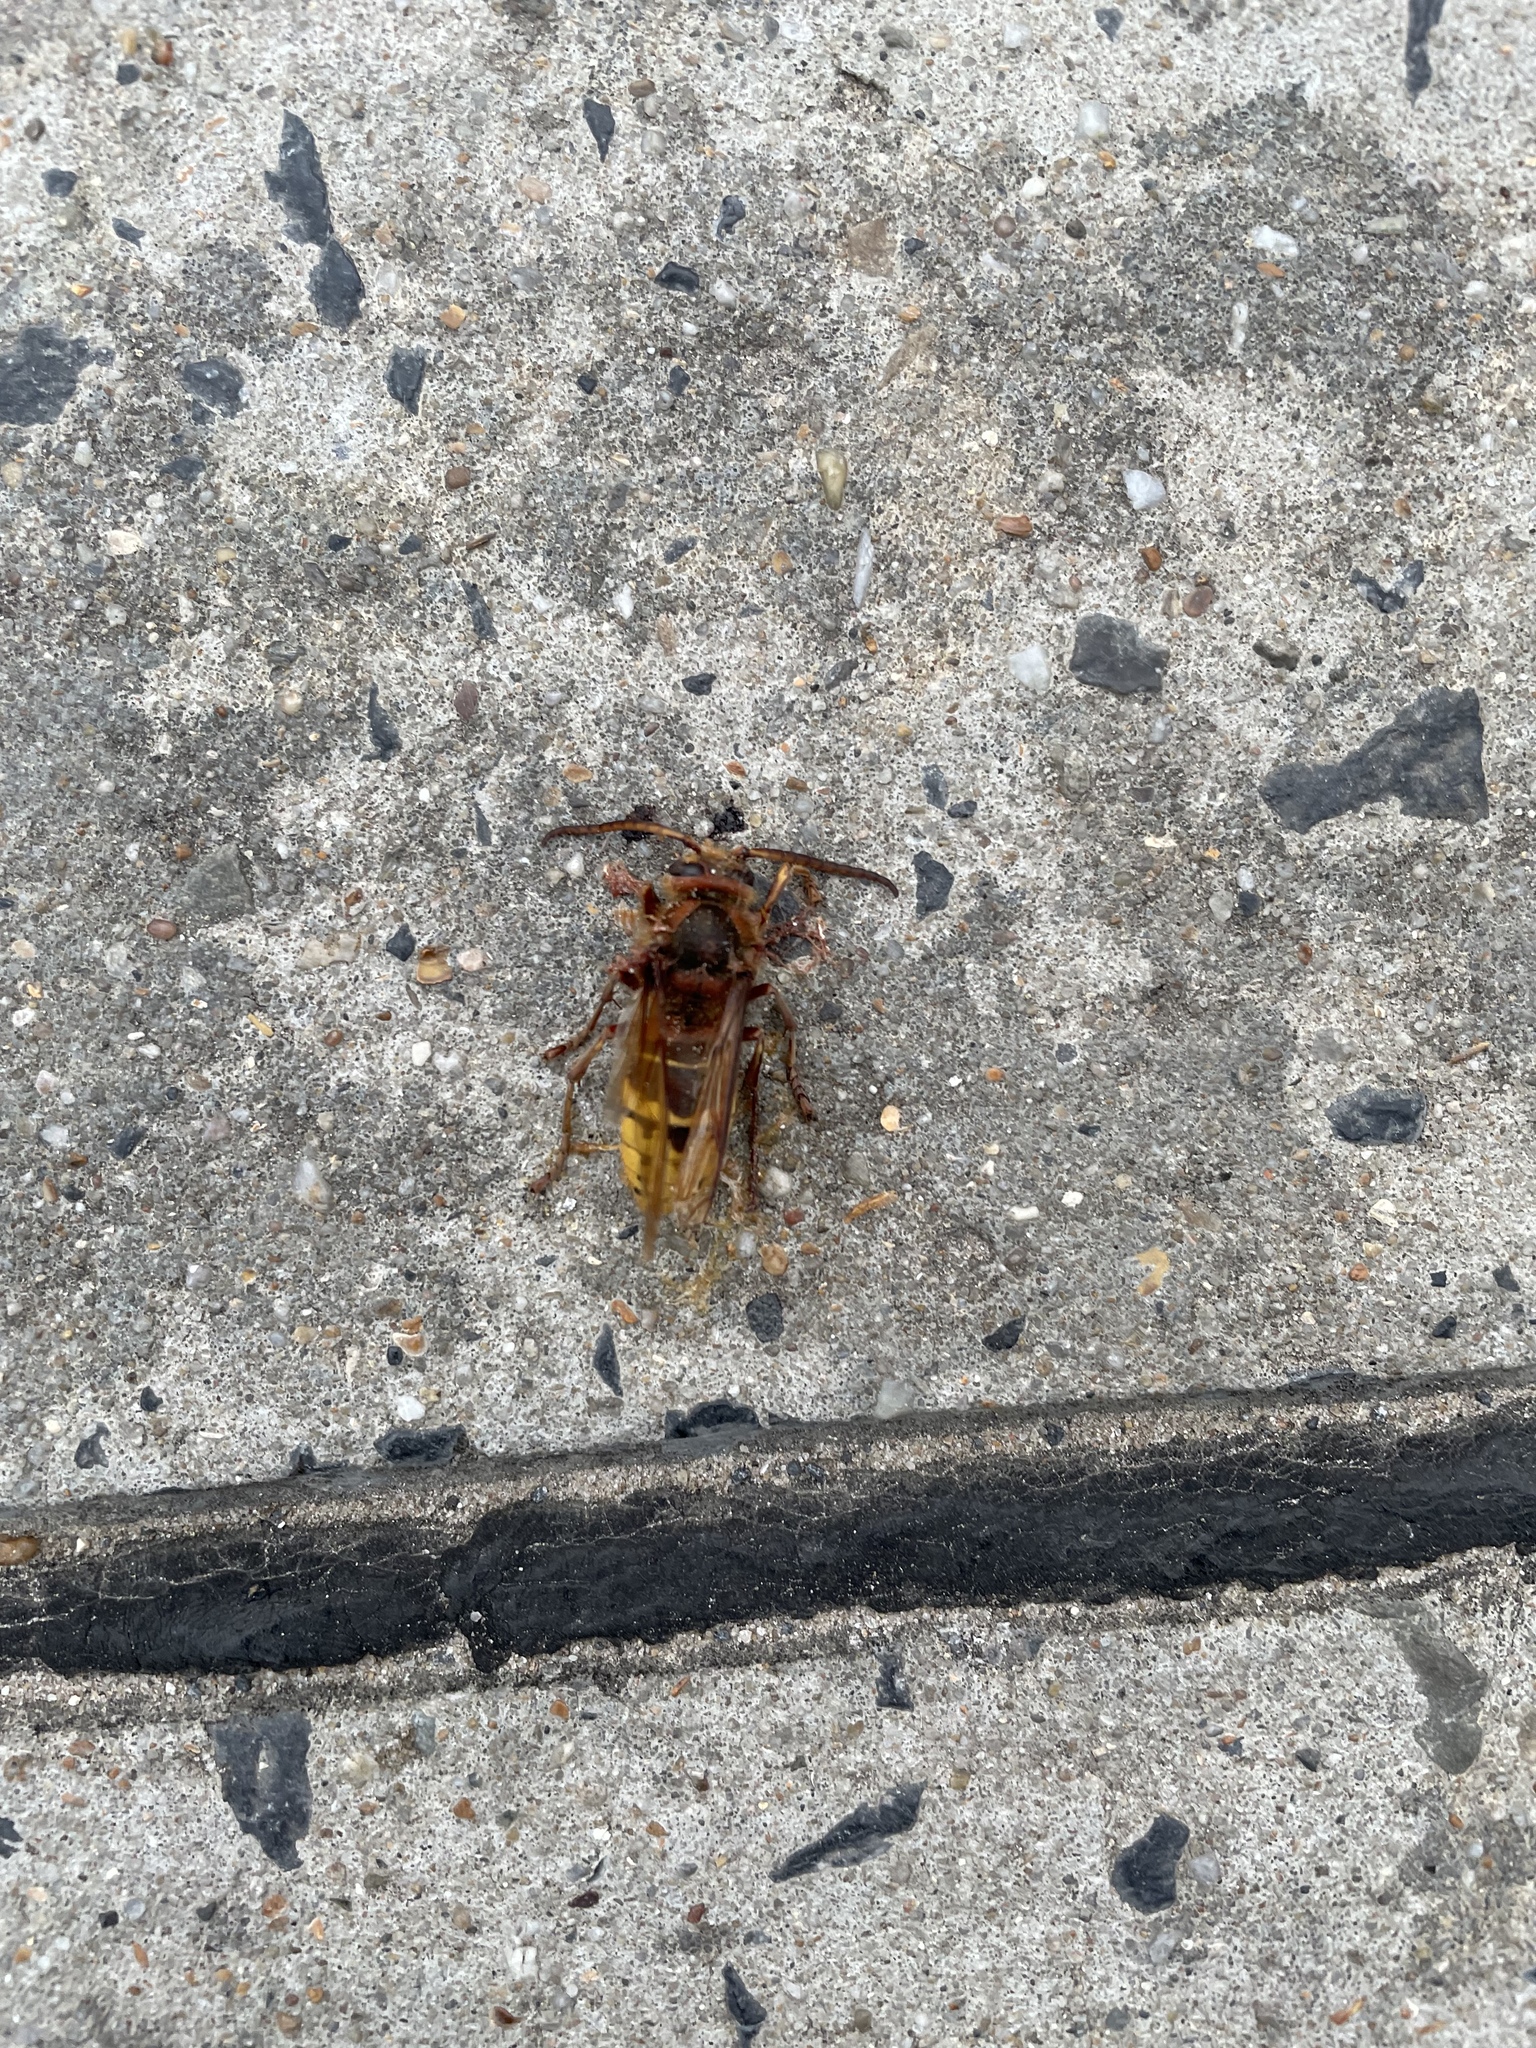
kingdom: Animalia
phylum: Arthropoda
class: Insecta
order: Hymenoptera
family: Vespidae
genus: Vespa
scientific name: Vespa crabro
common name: Hornet
